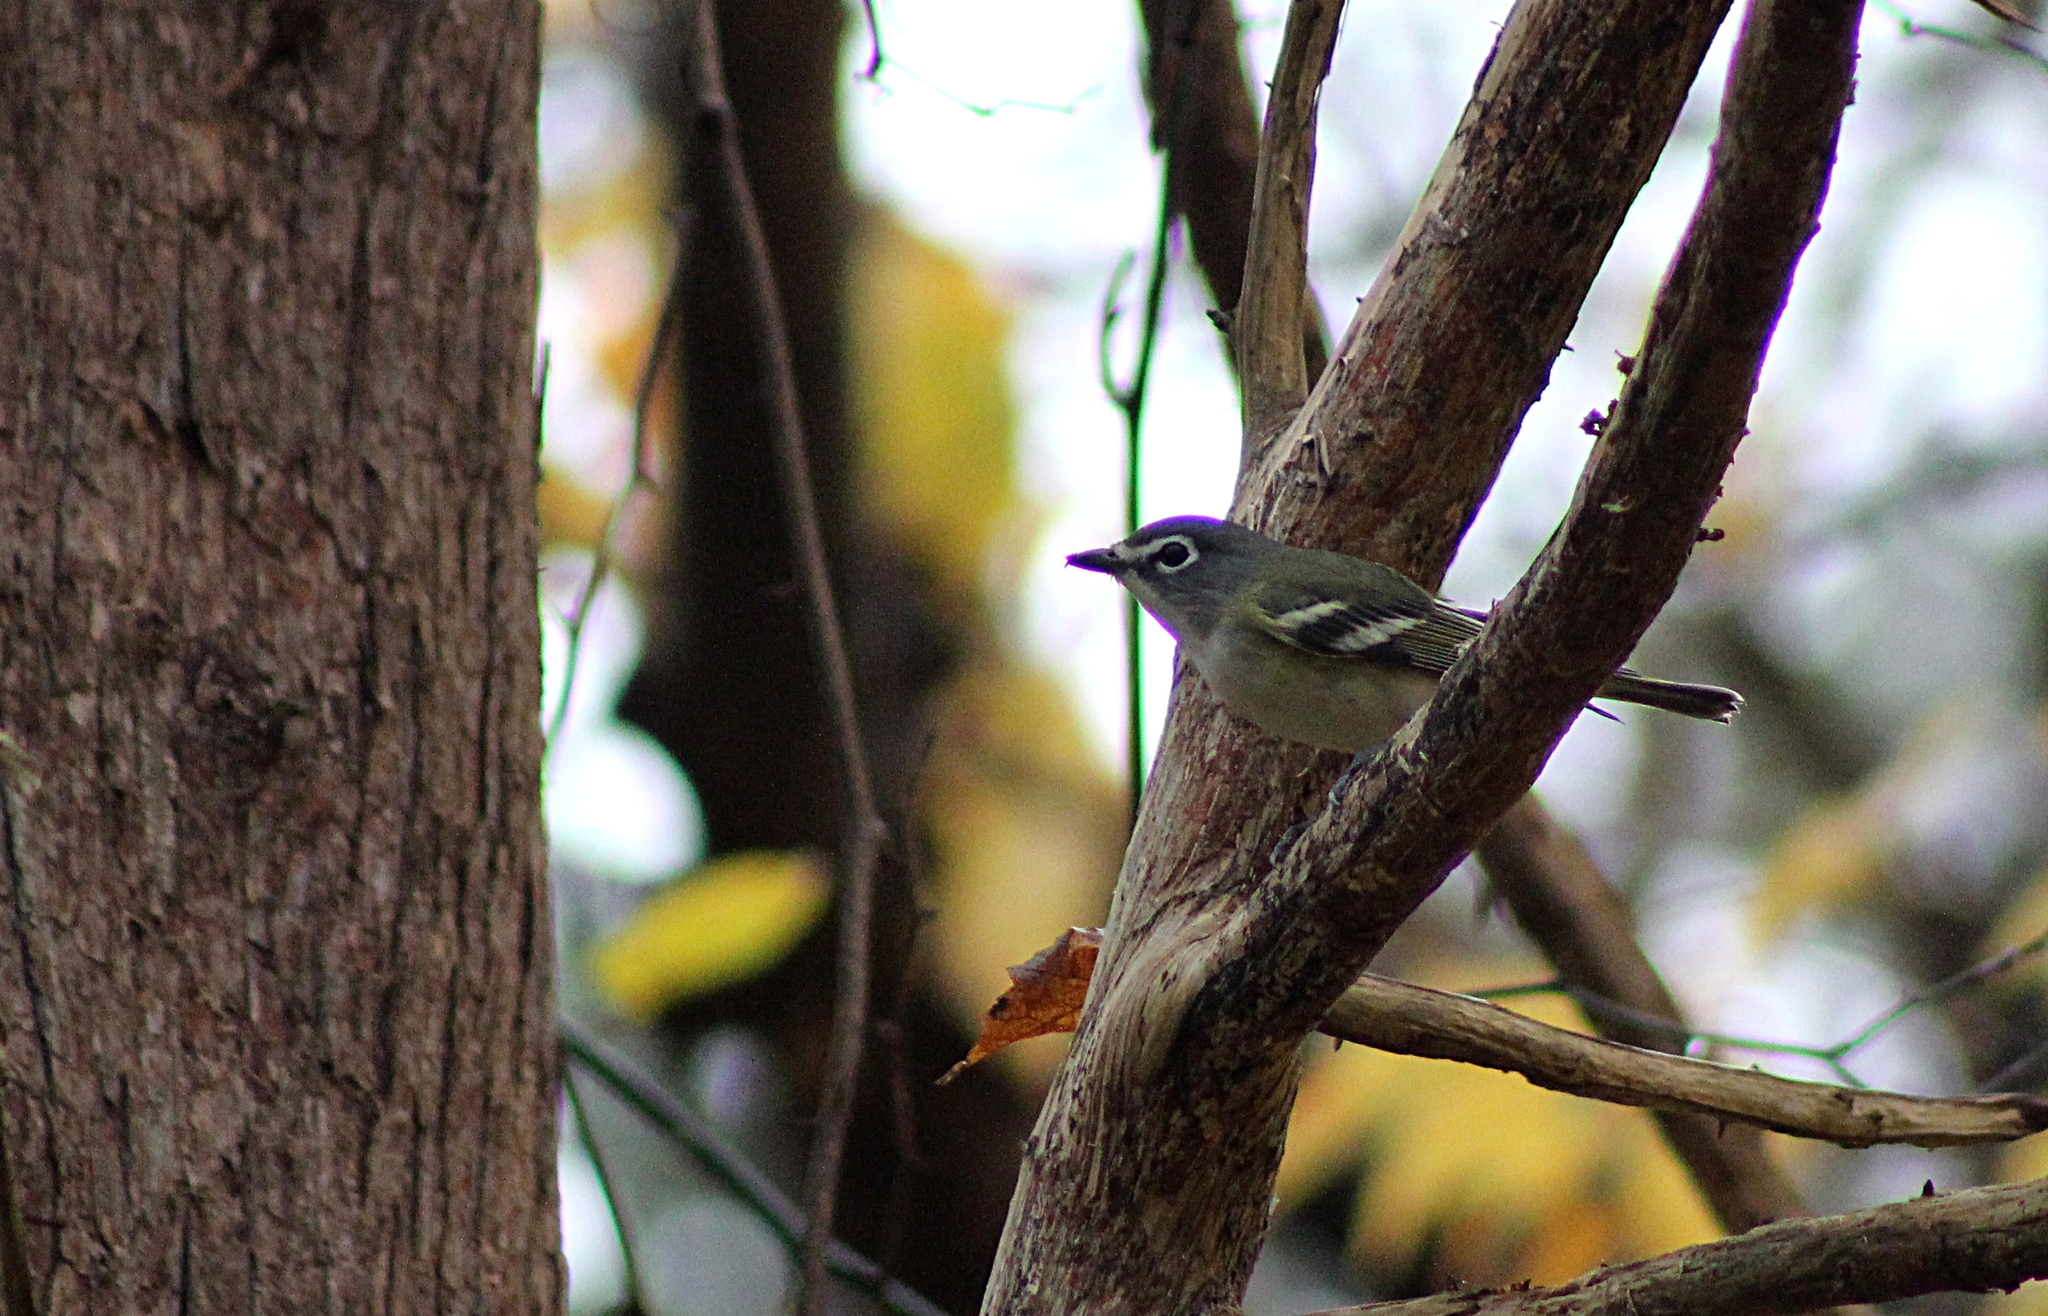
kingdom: Animalia
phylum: Chordata
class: Aves
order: Passeriformes
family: Vireonidae
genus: Vireo
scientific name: Vireo solitarius
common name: Blue-headed vireo
